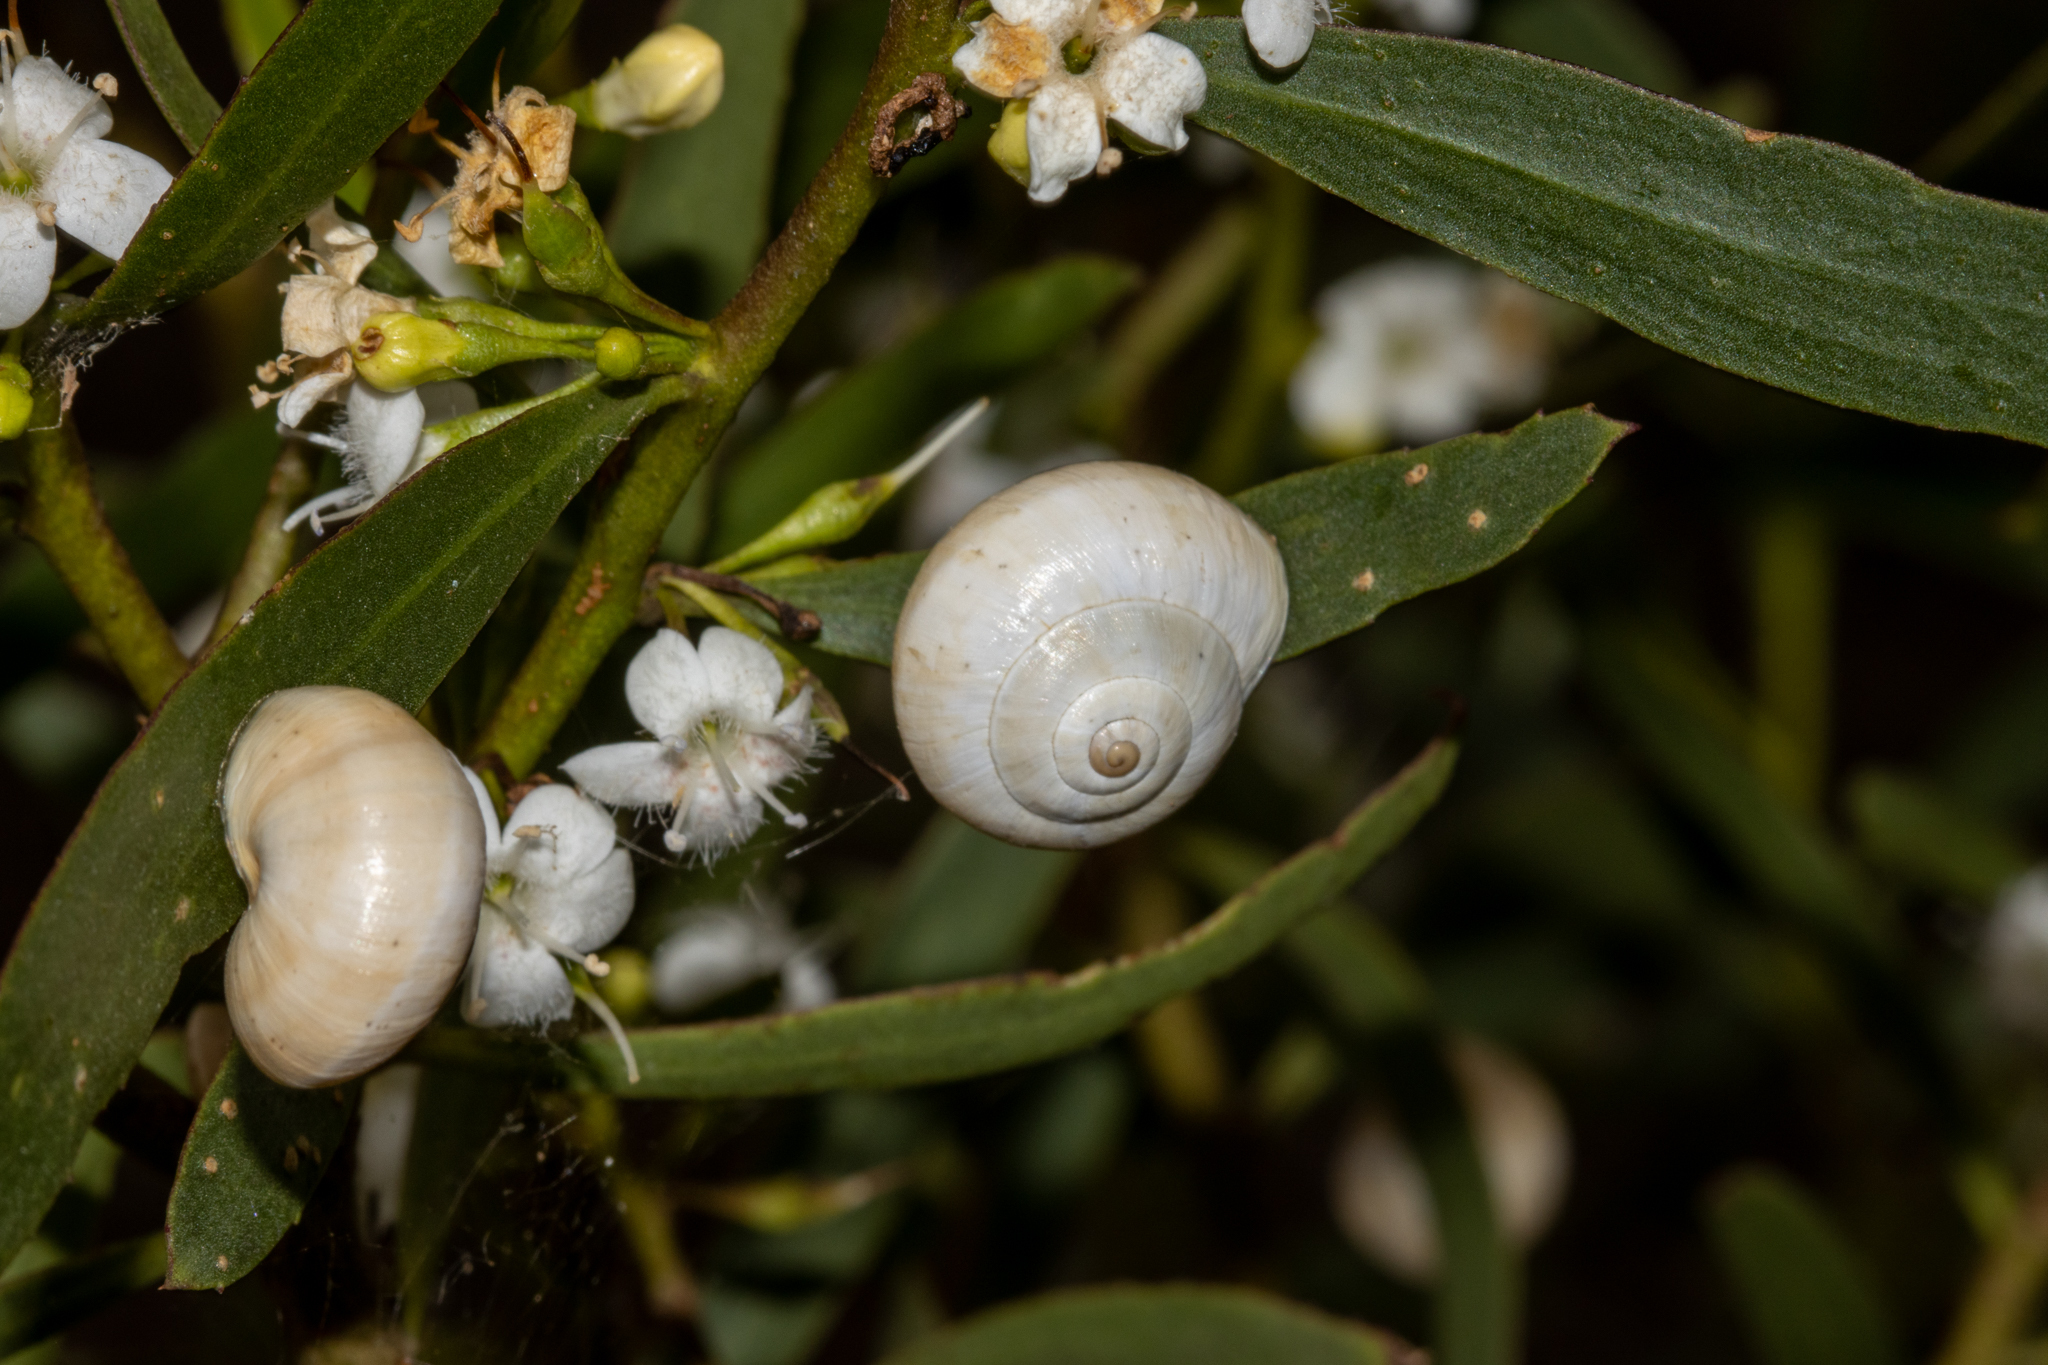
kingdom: Animalia
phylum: Mollusca
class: Gastropoda
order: Stylommatophora
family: Helicidae
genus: Theba
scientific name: Theba pisana
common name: White snail
